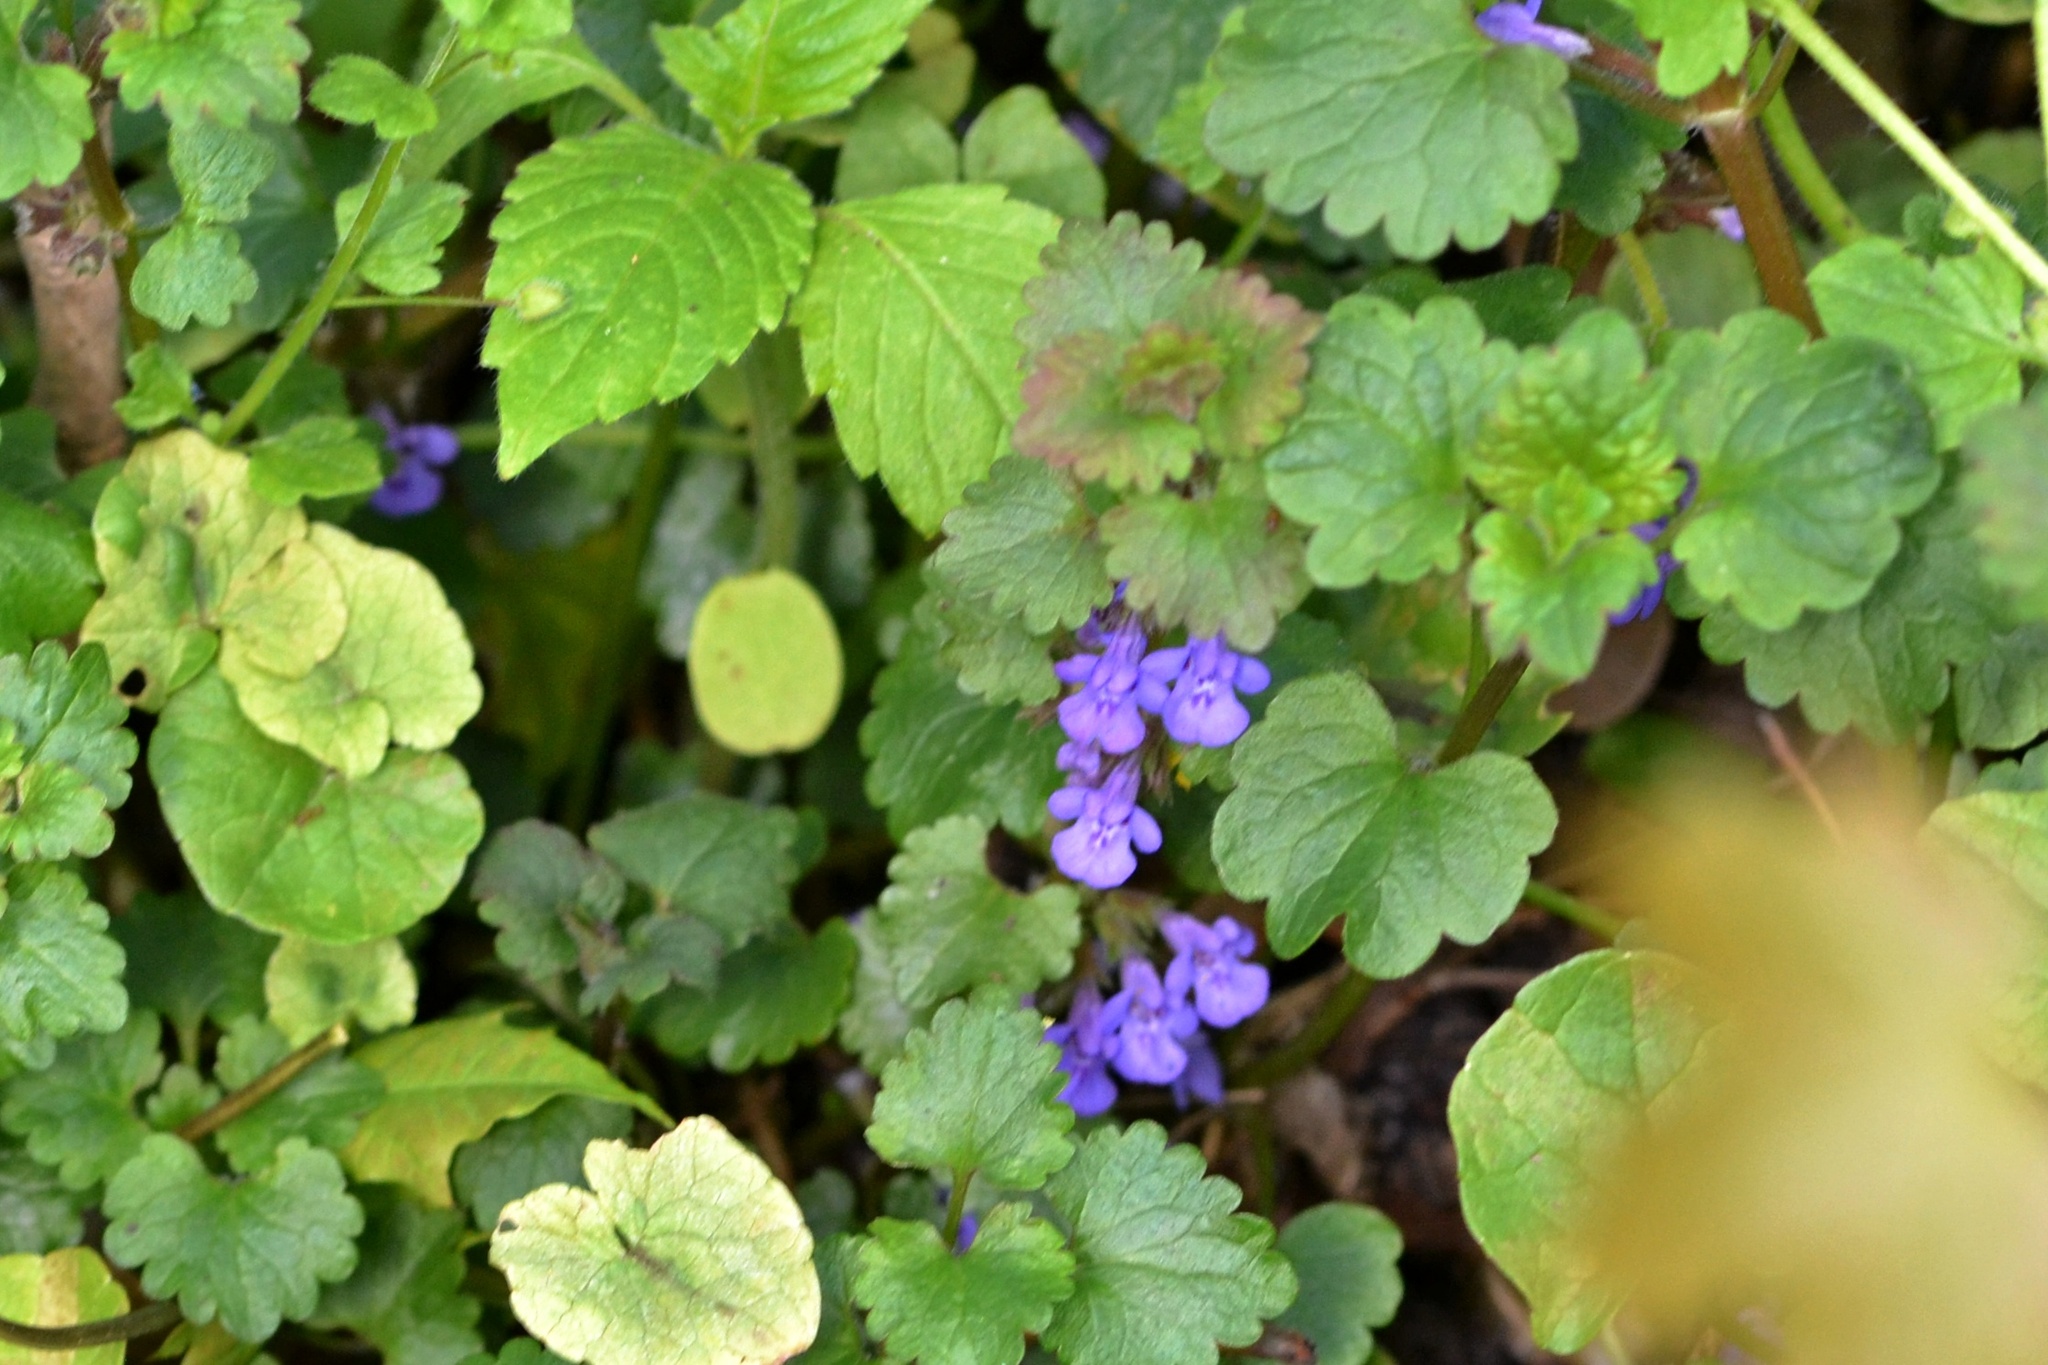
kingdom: Plantae
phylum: Tracheophyta
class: Magnoliopsida
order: Lamiales
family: Lamiaceae
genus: Glechoma
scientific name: Glechoma hederacea
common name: Ground ivy
